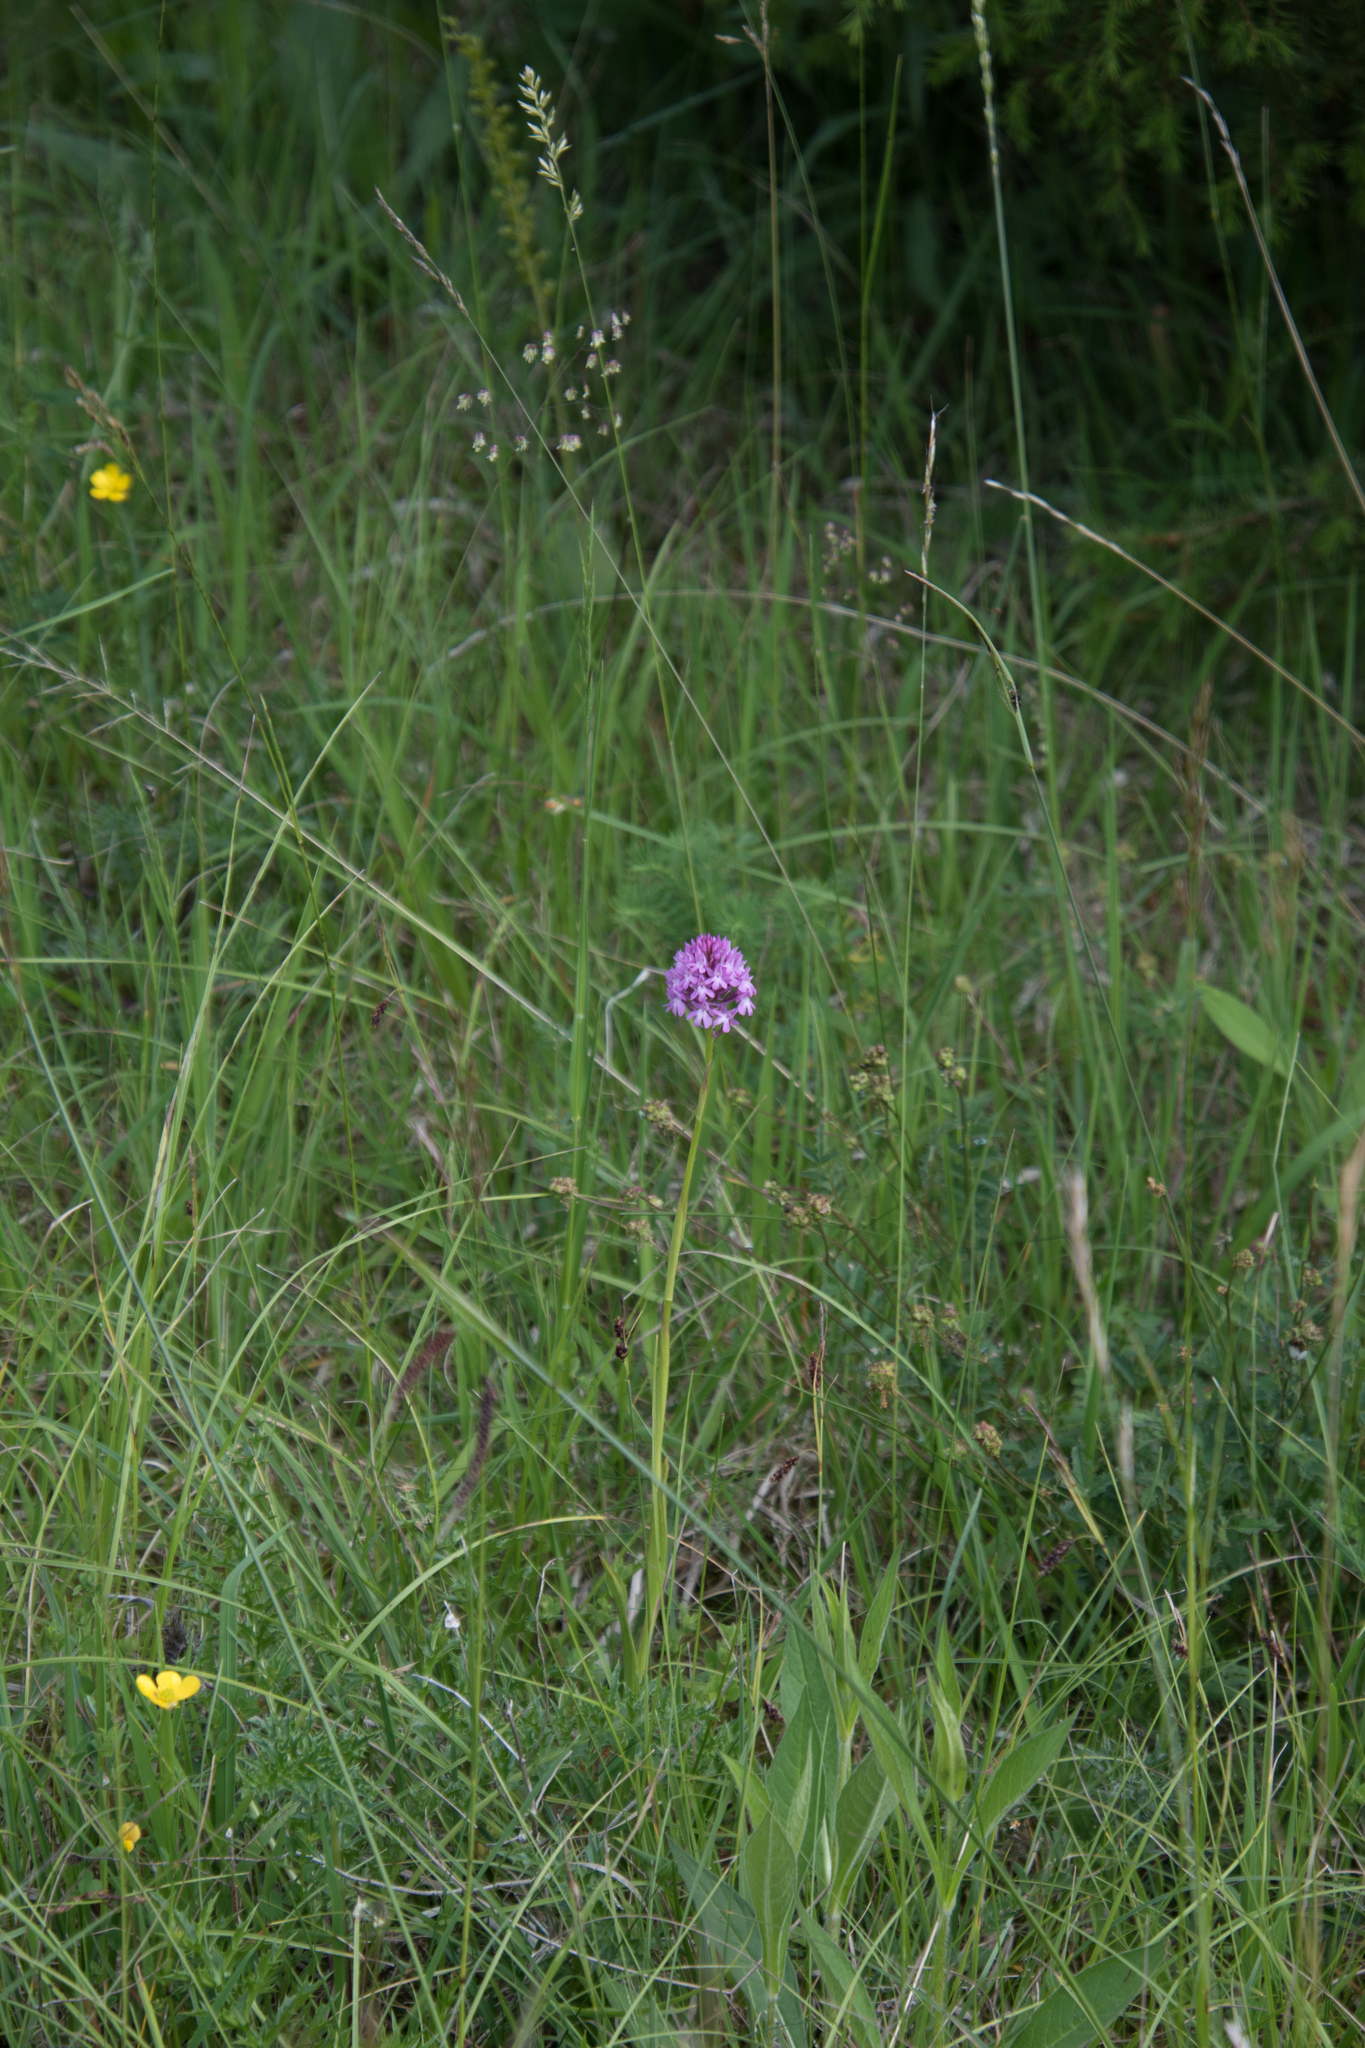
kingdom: Plantae
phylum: Tracheophyta
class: Liliopsida
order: Asparagales
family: Orchidaceae
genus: Anacamptis
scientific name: Anacamptis pyramidalis
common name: Pyramidal orchid
